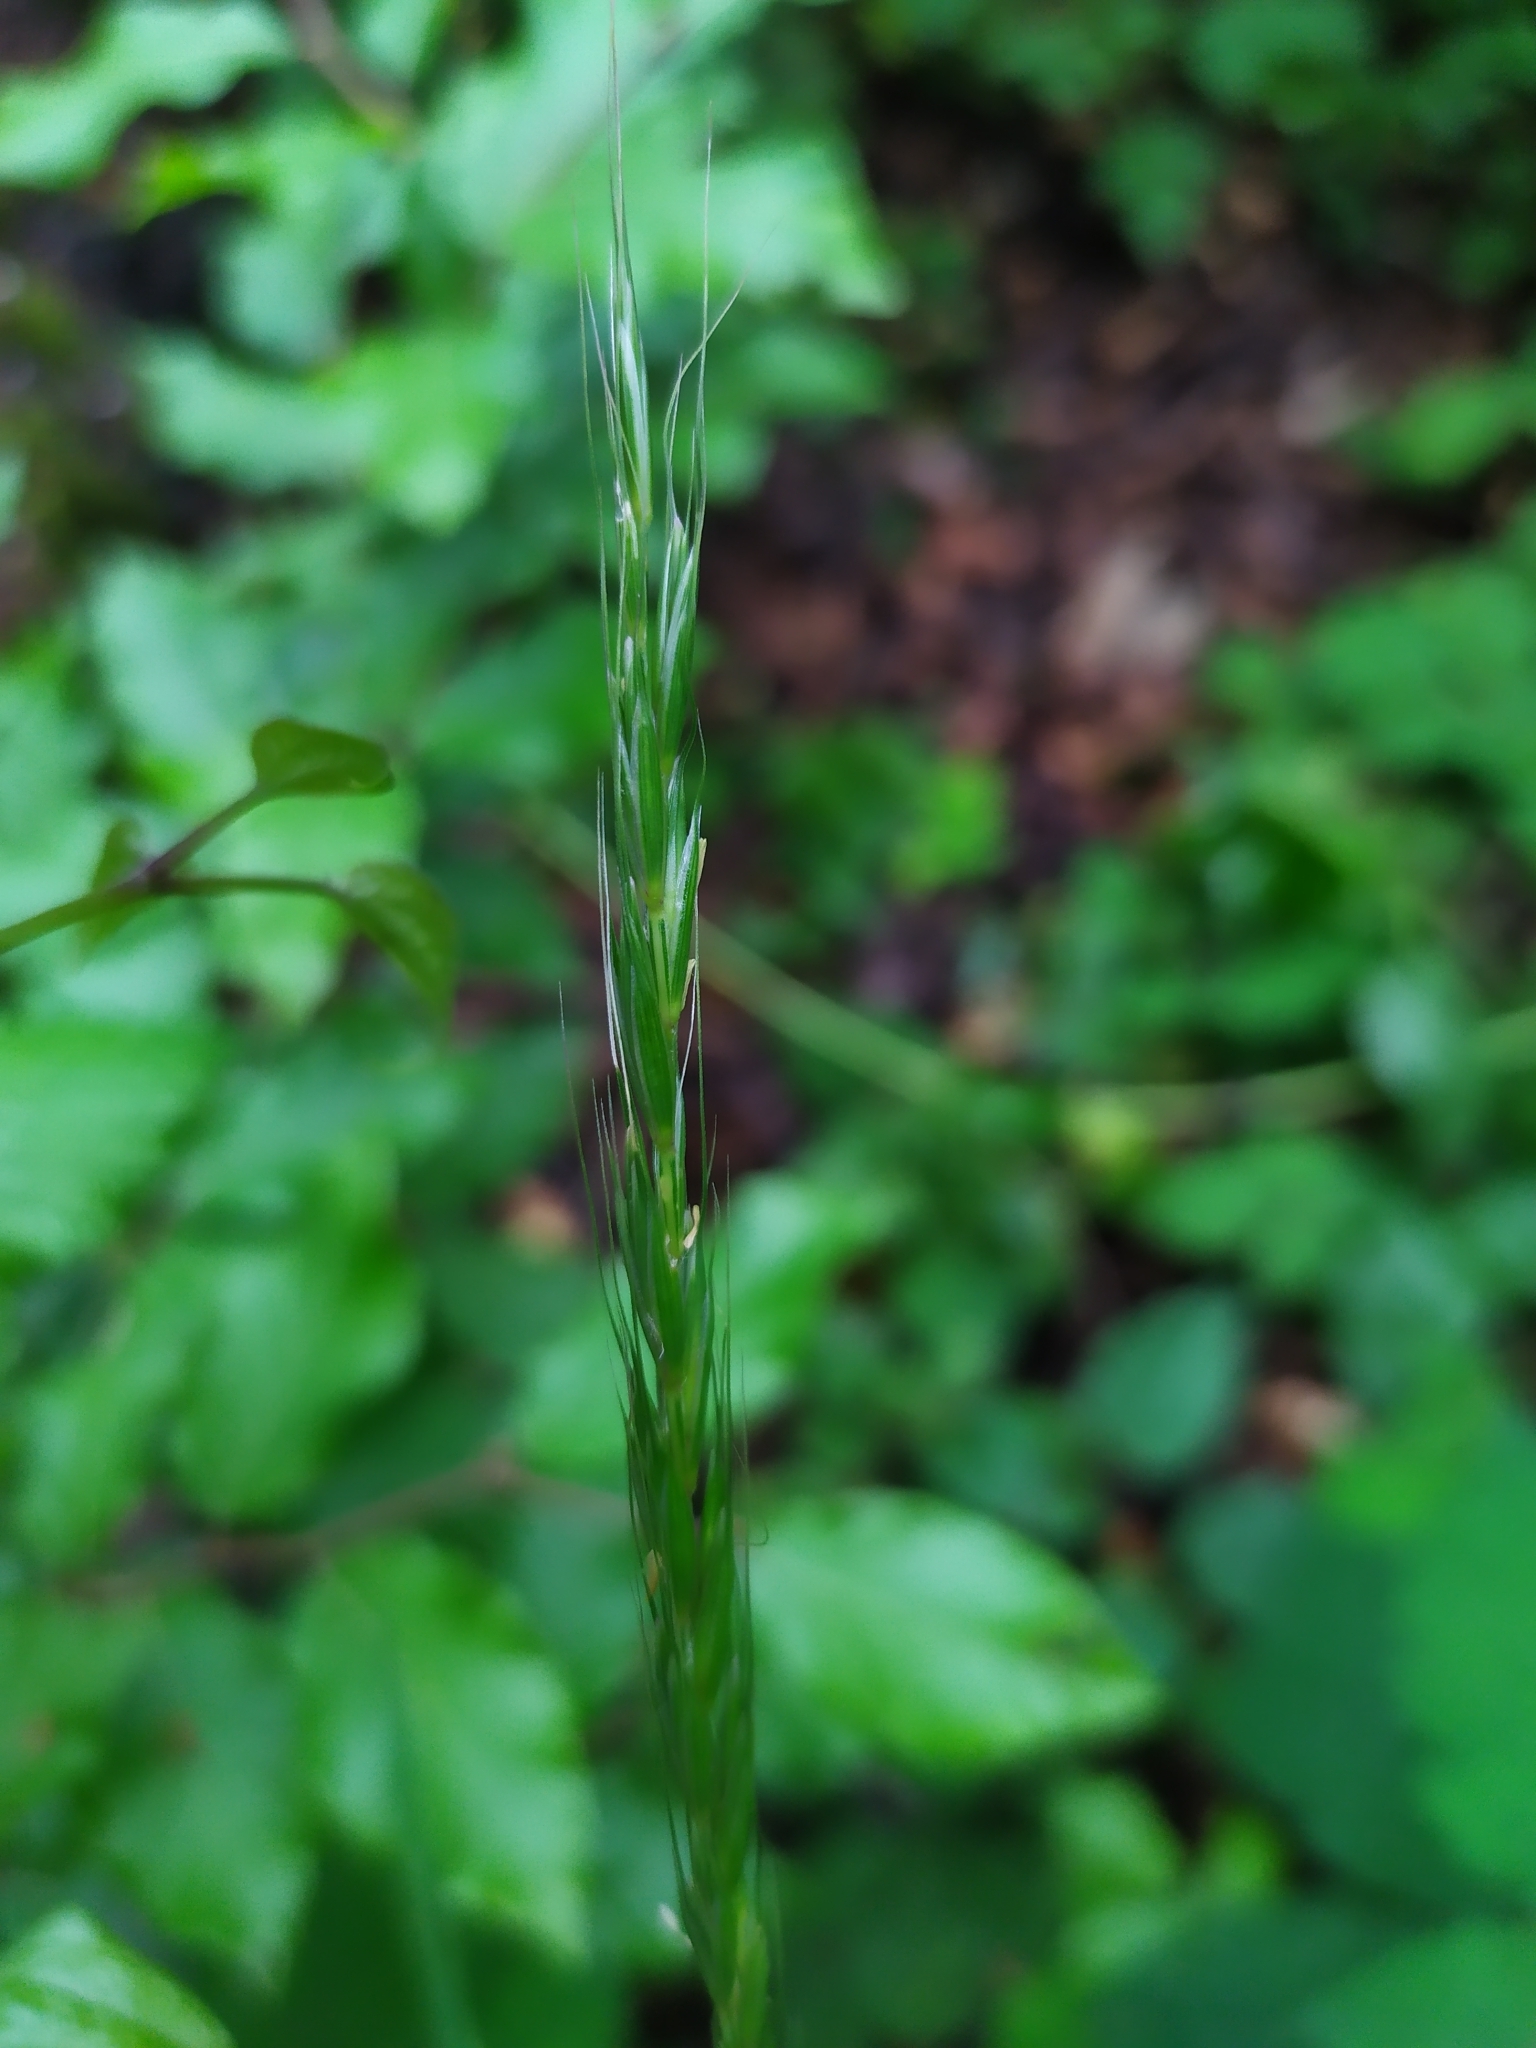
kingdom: Plantae
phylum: Tracheophyta
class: Liliopsida
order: Poales
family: Poaceae
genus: Elymus
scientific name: Elymus caninus
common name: Bearded couch
